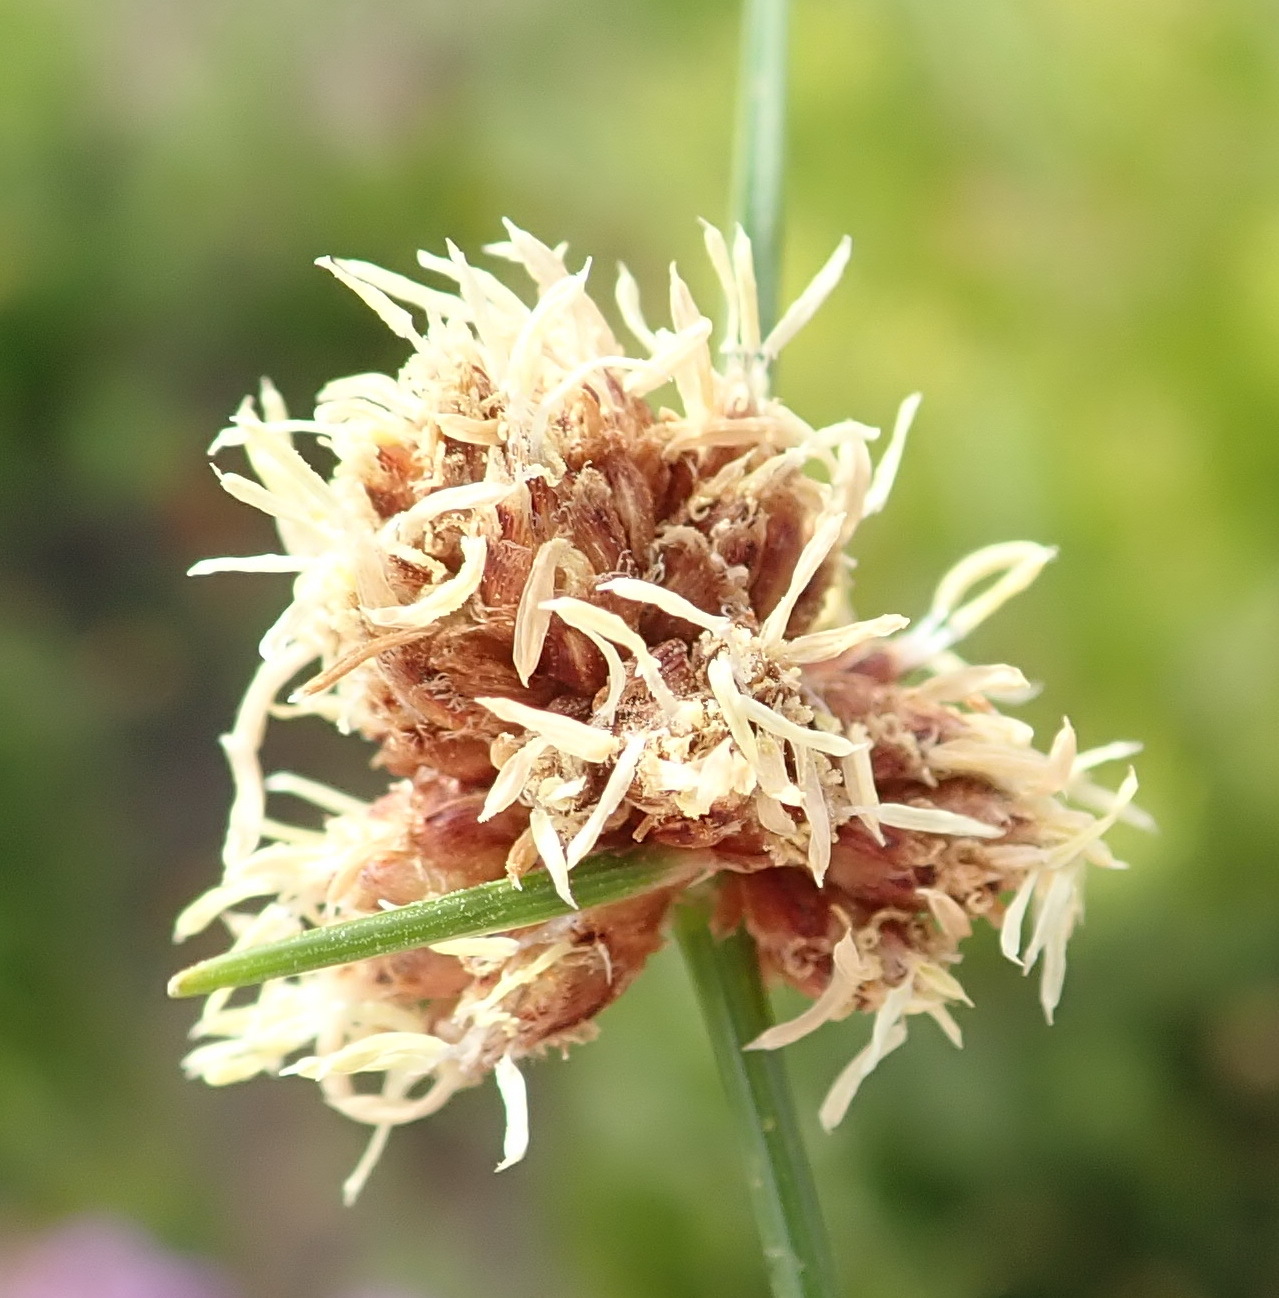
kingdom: Plantae
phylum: Tracheophyta
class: Liliopsida
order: Poales
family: Cyperaceae
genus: Ficinia
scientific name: Ficinia laciniata
